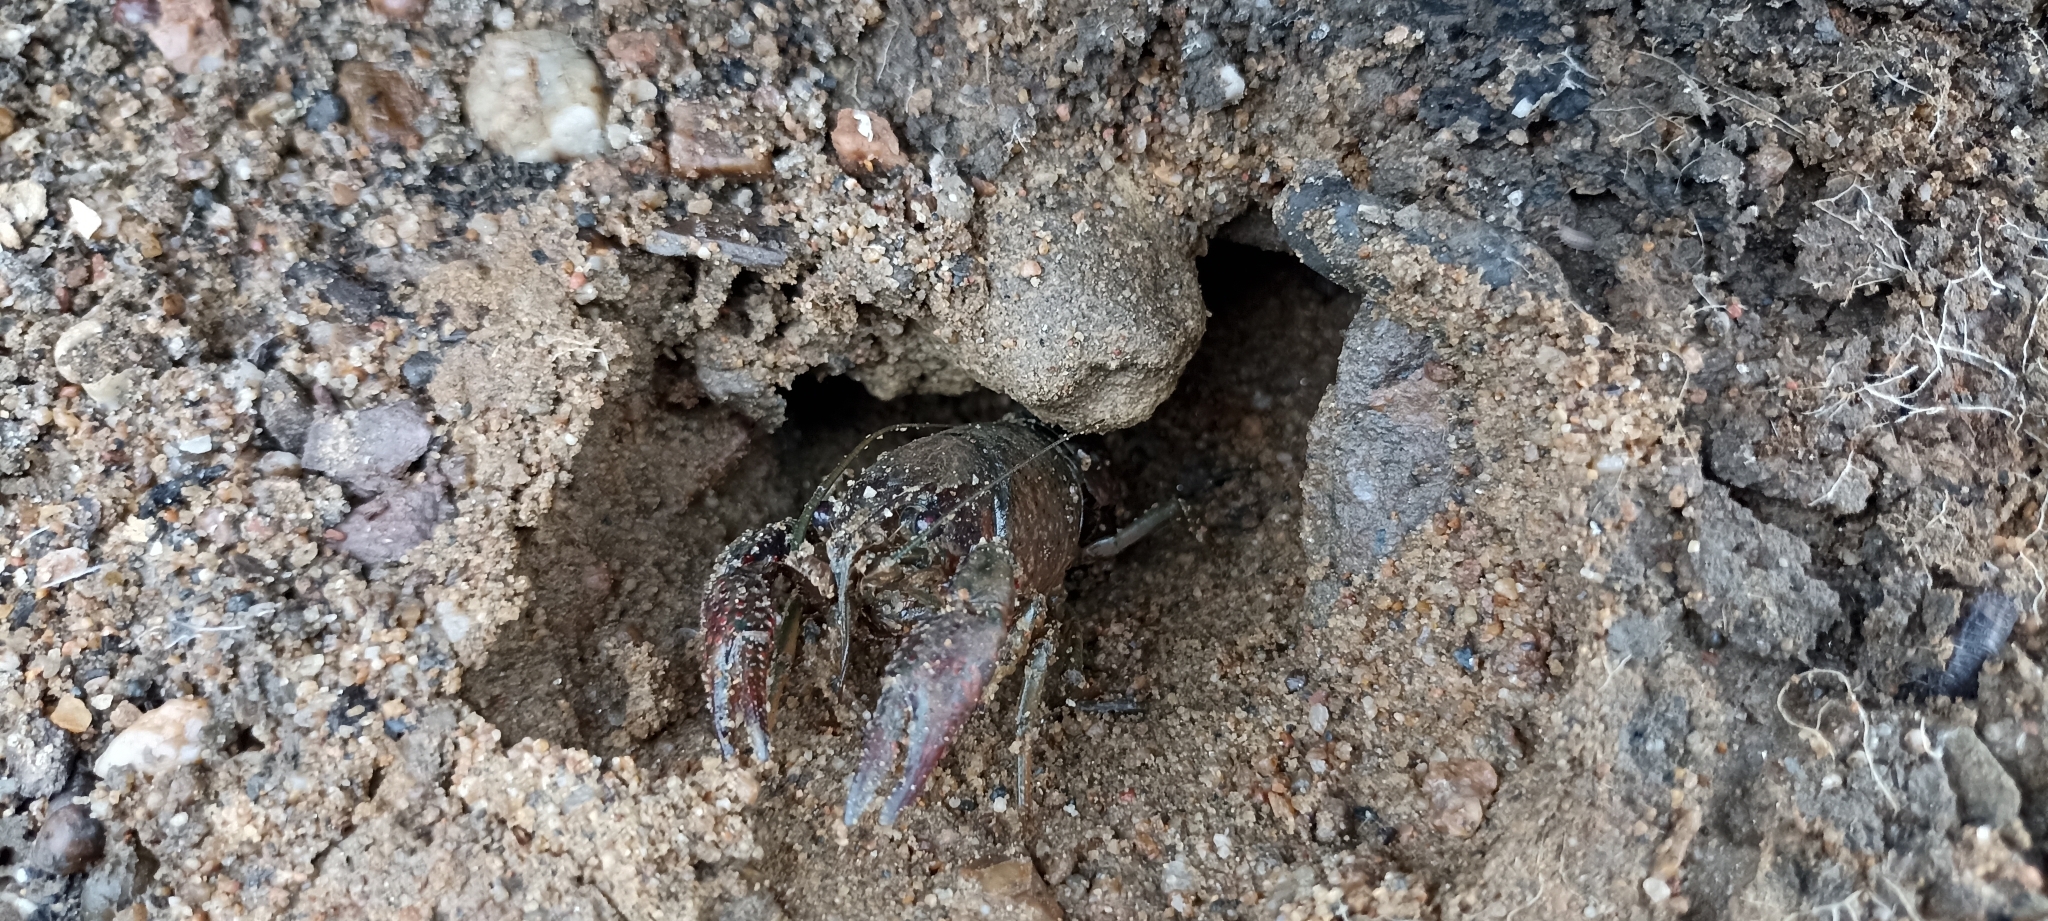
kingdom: Animalia
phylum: Arthropoda
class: Malacostraca
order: Decapoda
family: Cambaridae
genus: Procambarus
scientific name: Procambarus clarkii
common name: Red swamp crayfish
